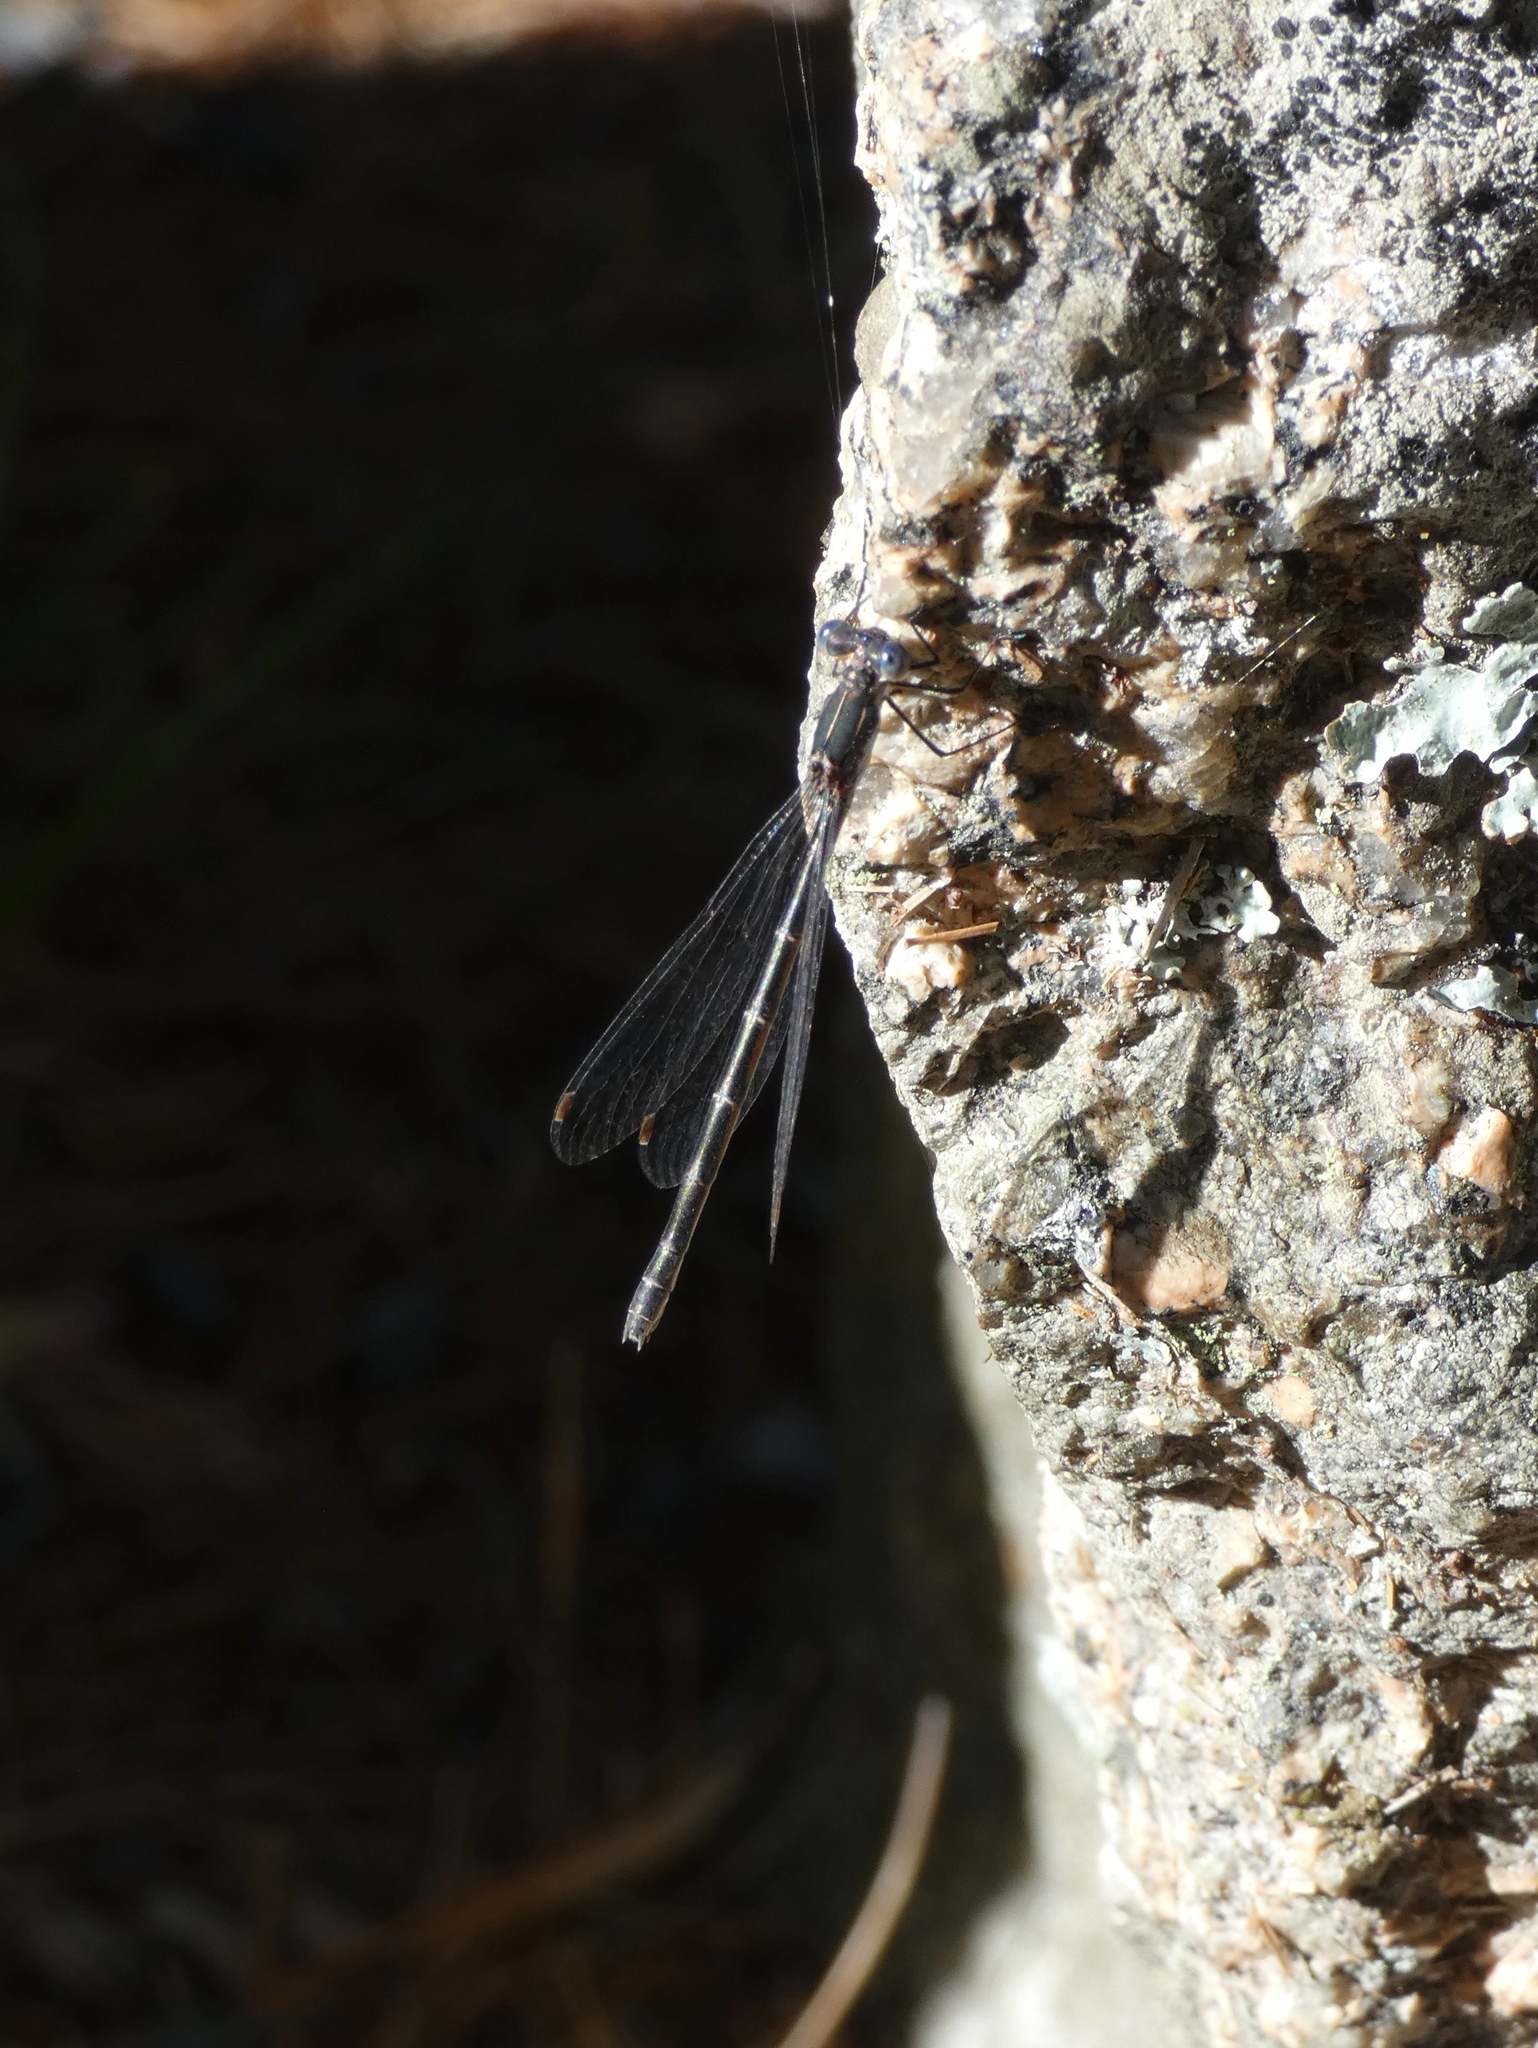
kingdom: Animalia
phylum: Arthropoda
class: Insecta
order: Odonata
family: Lestidae
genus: Lestes
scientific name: Lestes congener
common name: Spotted spreadwing
